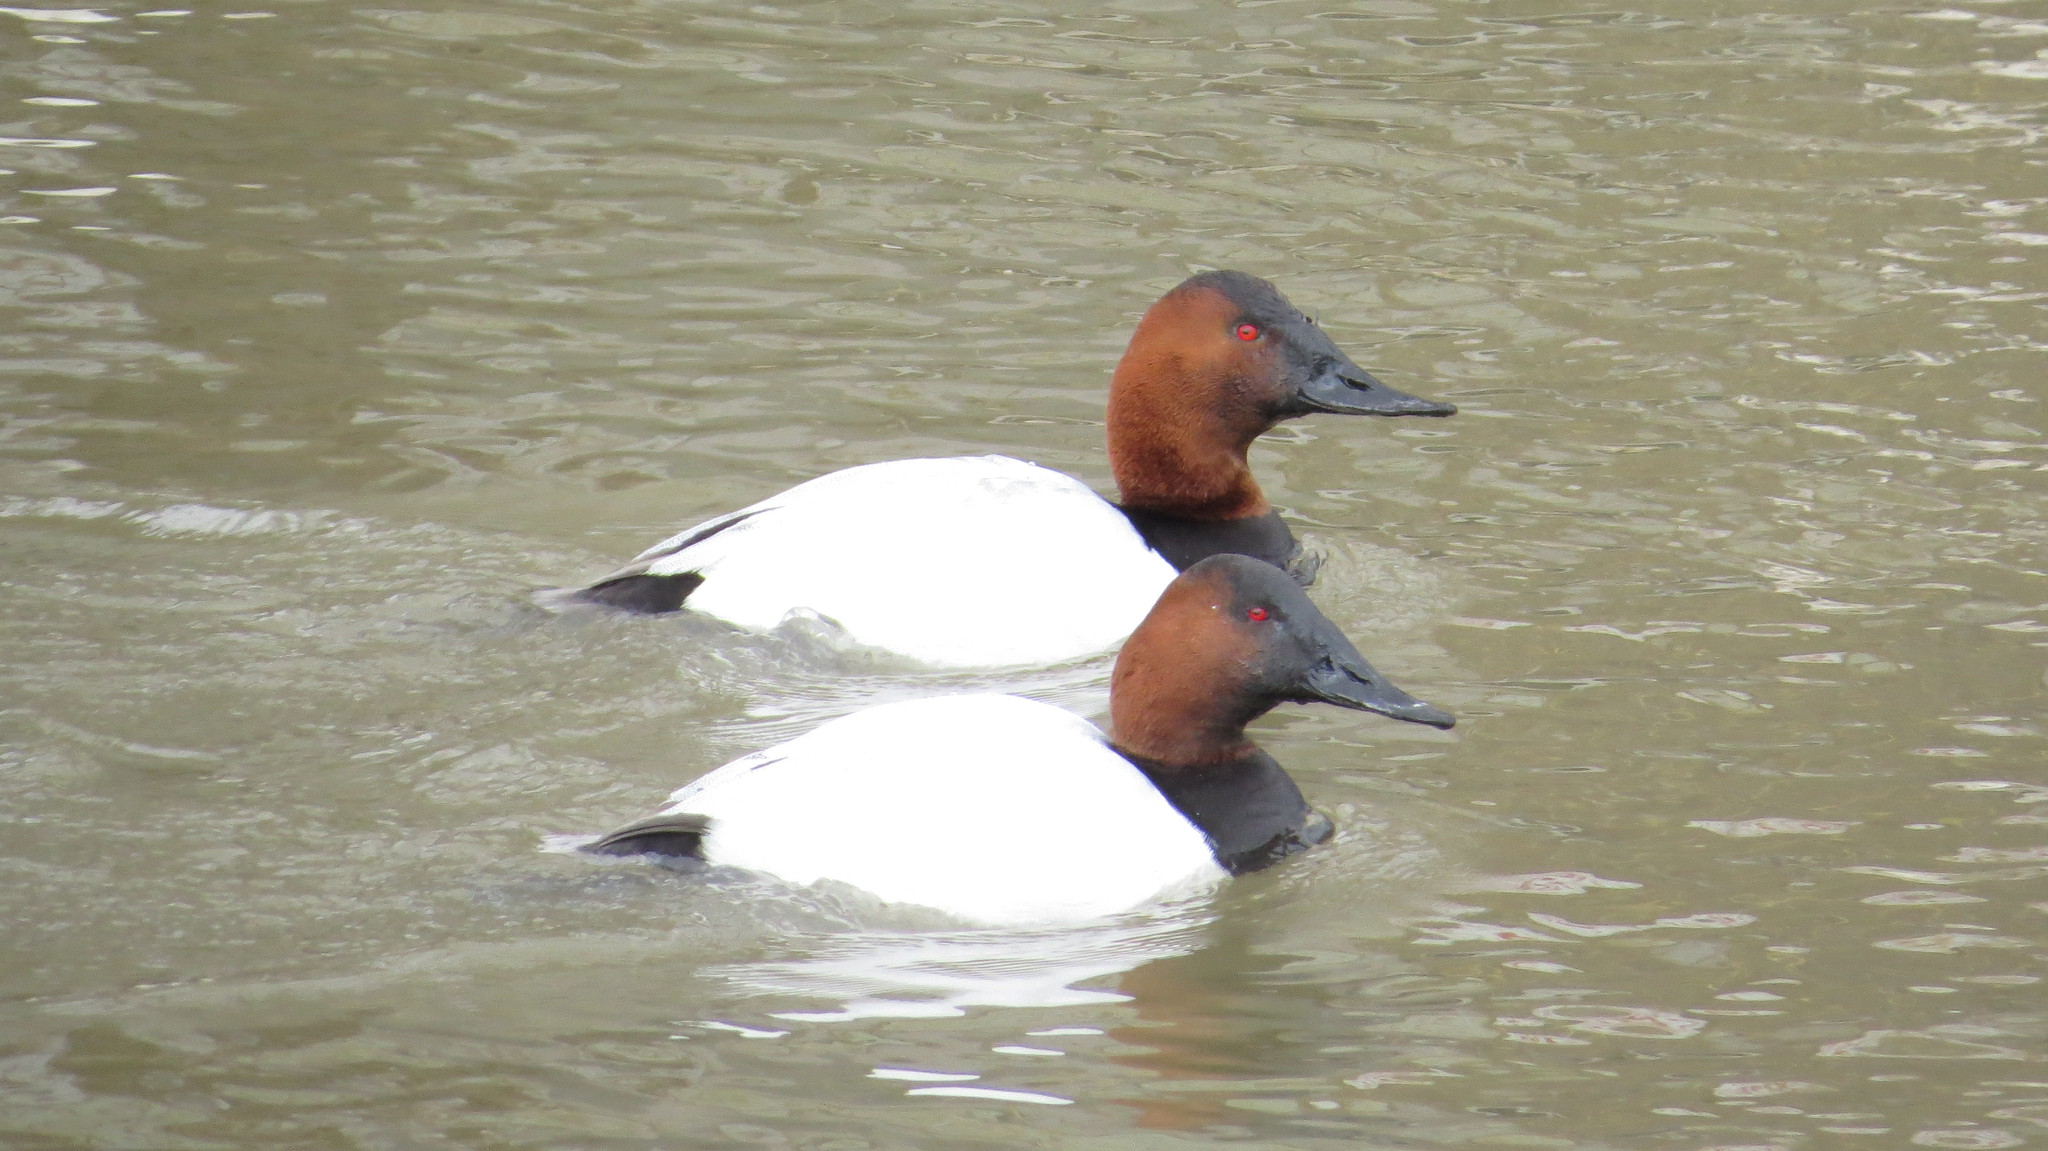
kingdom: Animalia
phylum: Chordata
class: Aves
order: Anseriformes
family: Anatidae
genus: Aythya
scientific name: Aythya valisineria
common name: Canvasback
